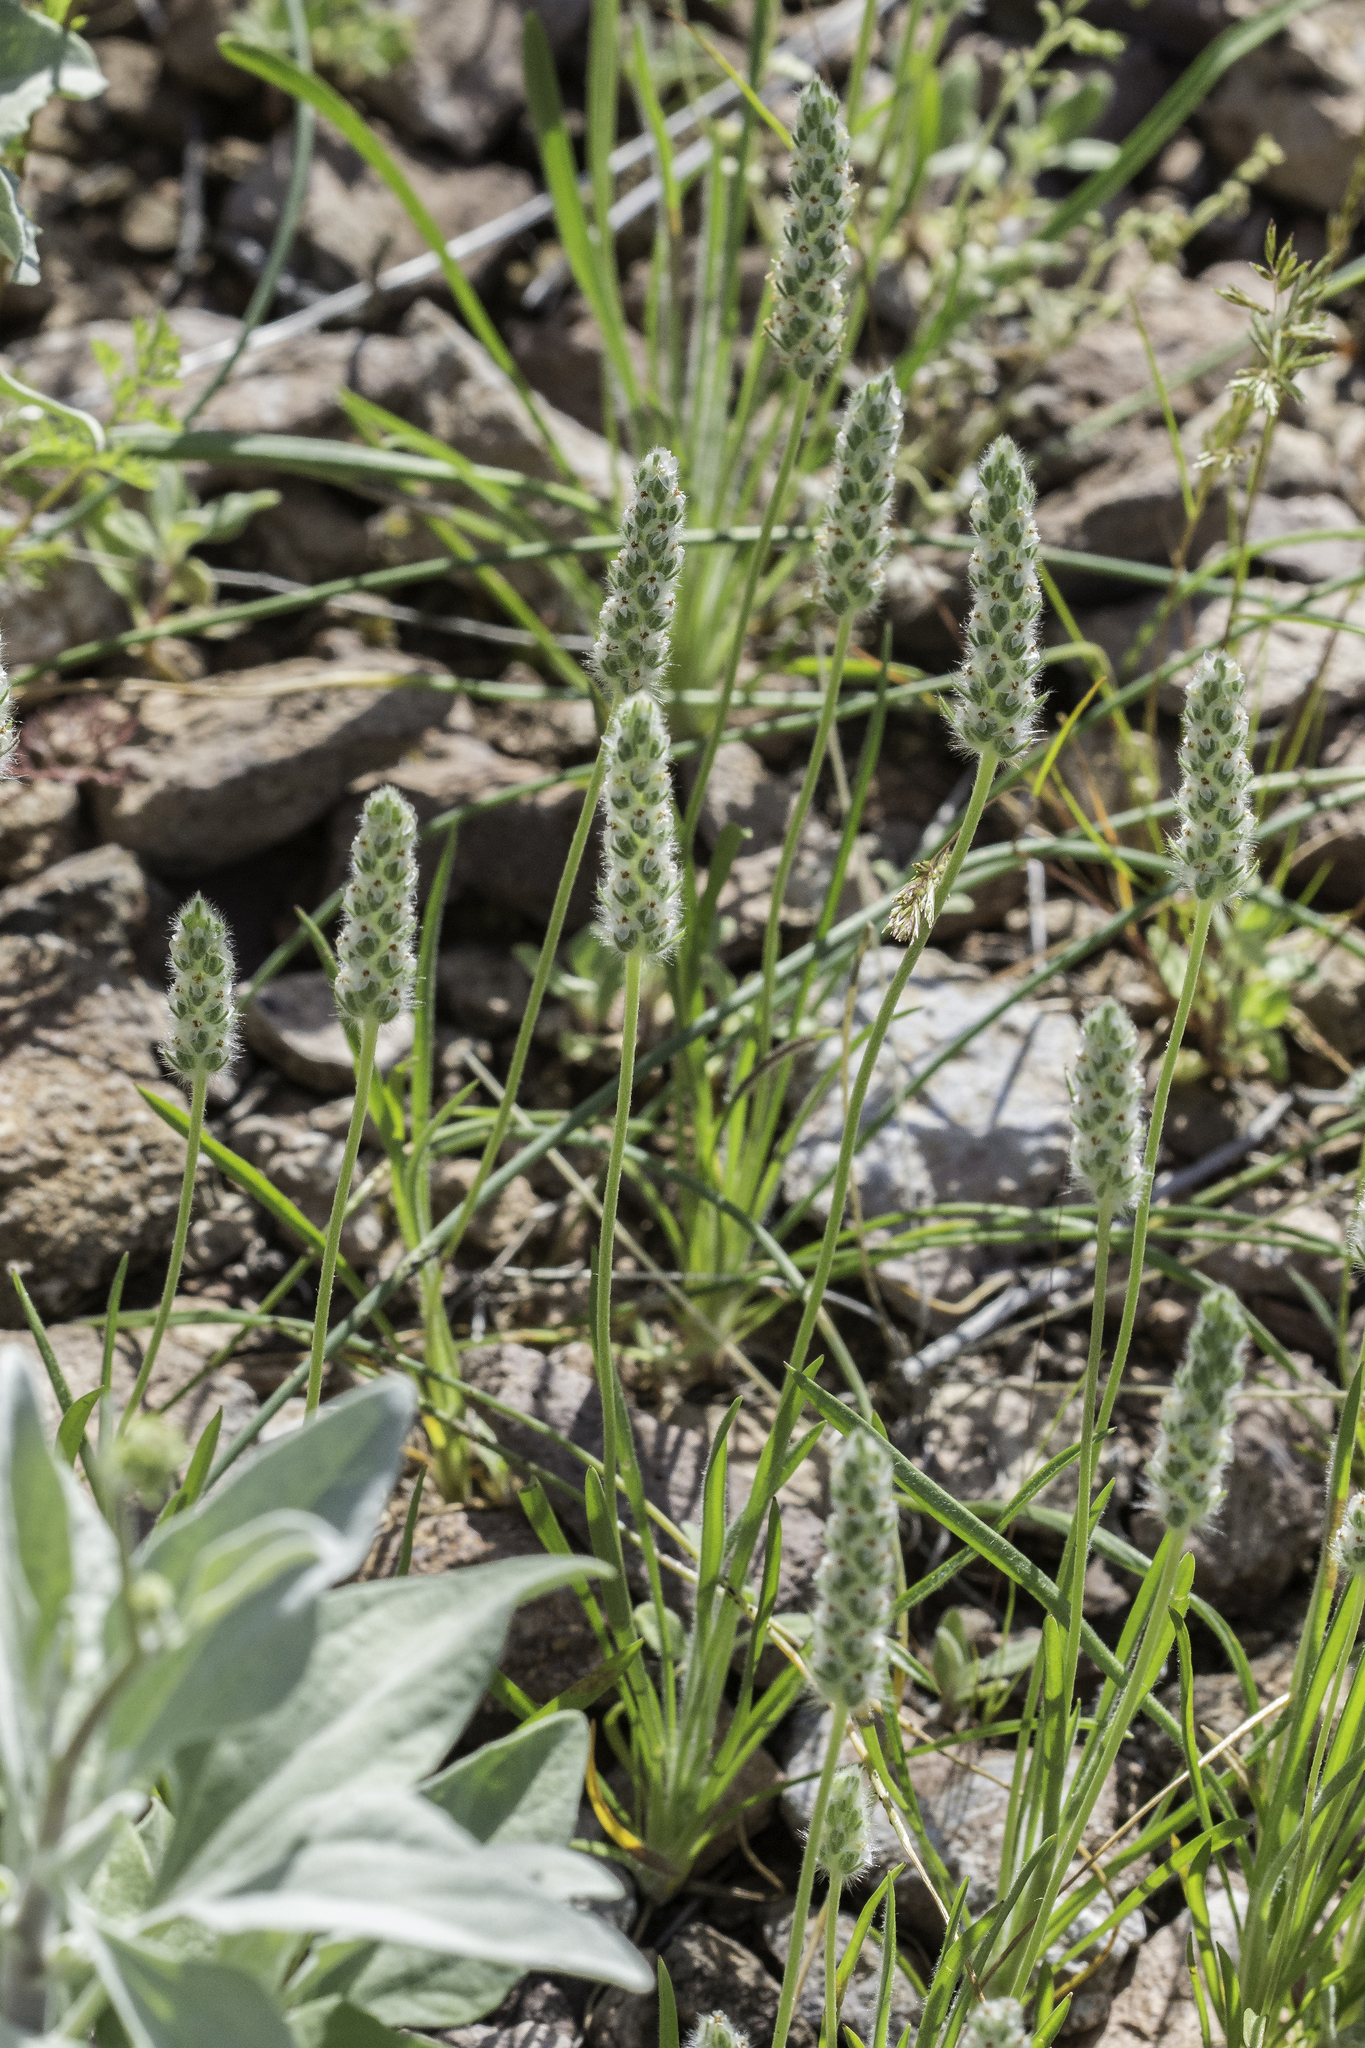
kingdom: Plantae
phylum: Tracheophyta
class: Magnoliopsida
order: Lamiales
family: Plantaginaceae
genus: Plantago
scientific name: Plantago patagonica
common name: Patagonia indian-wheat
